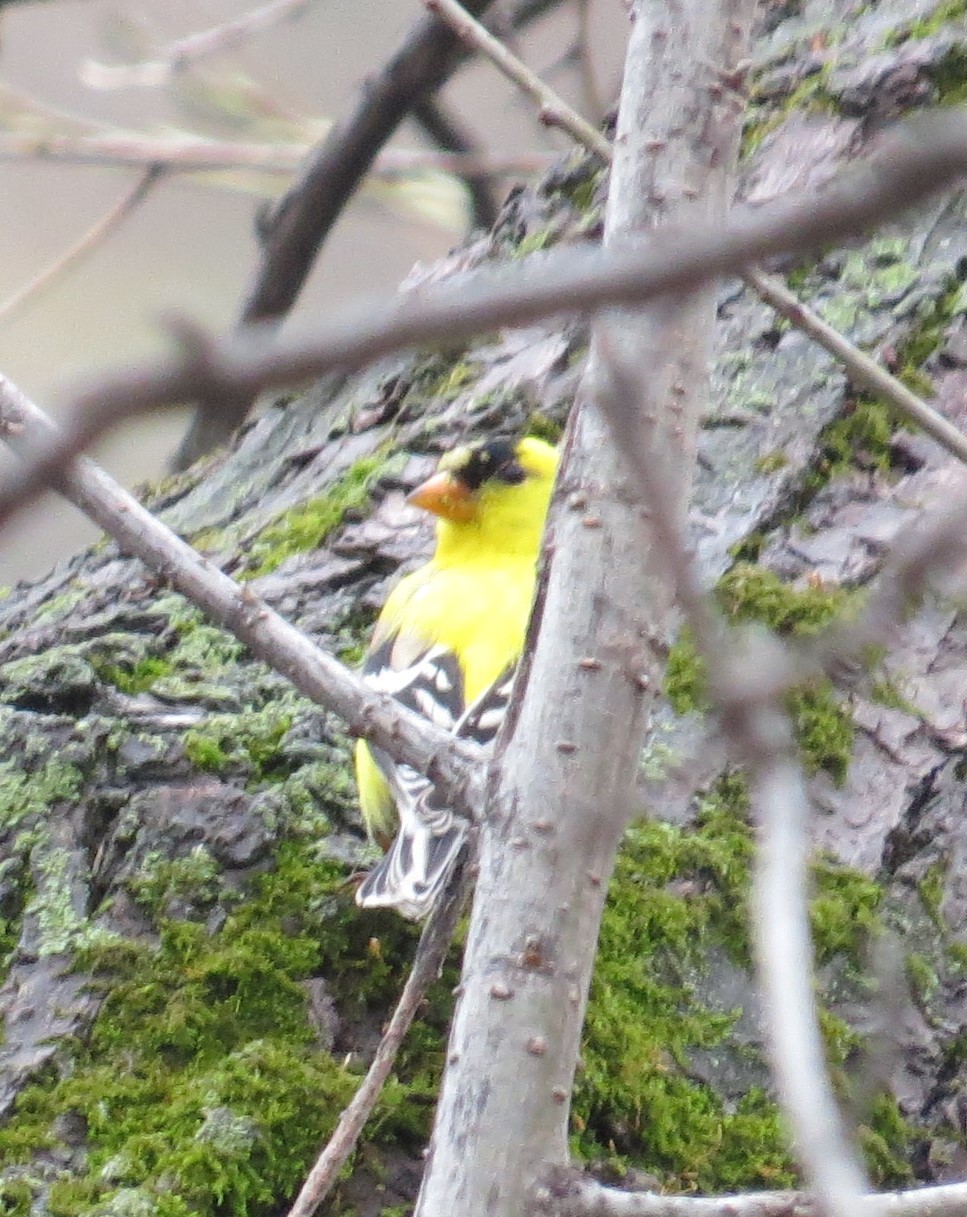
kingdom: Animalia
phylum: Chordata
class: Aves
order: Passeriformes
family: Fringillidae
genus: Spinus
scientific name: Spinus tristis
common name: American goldfinch
